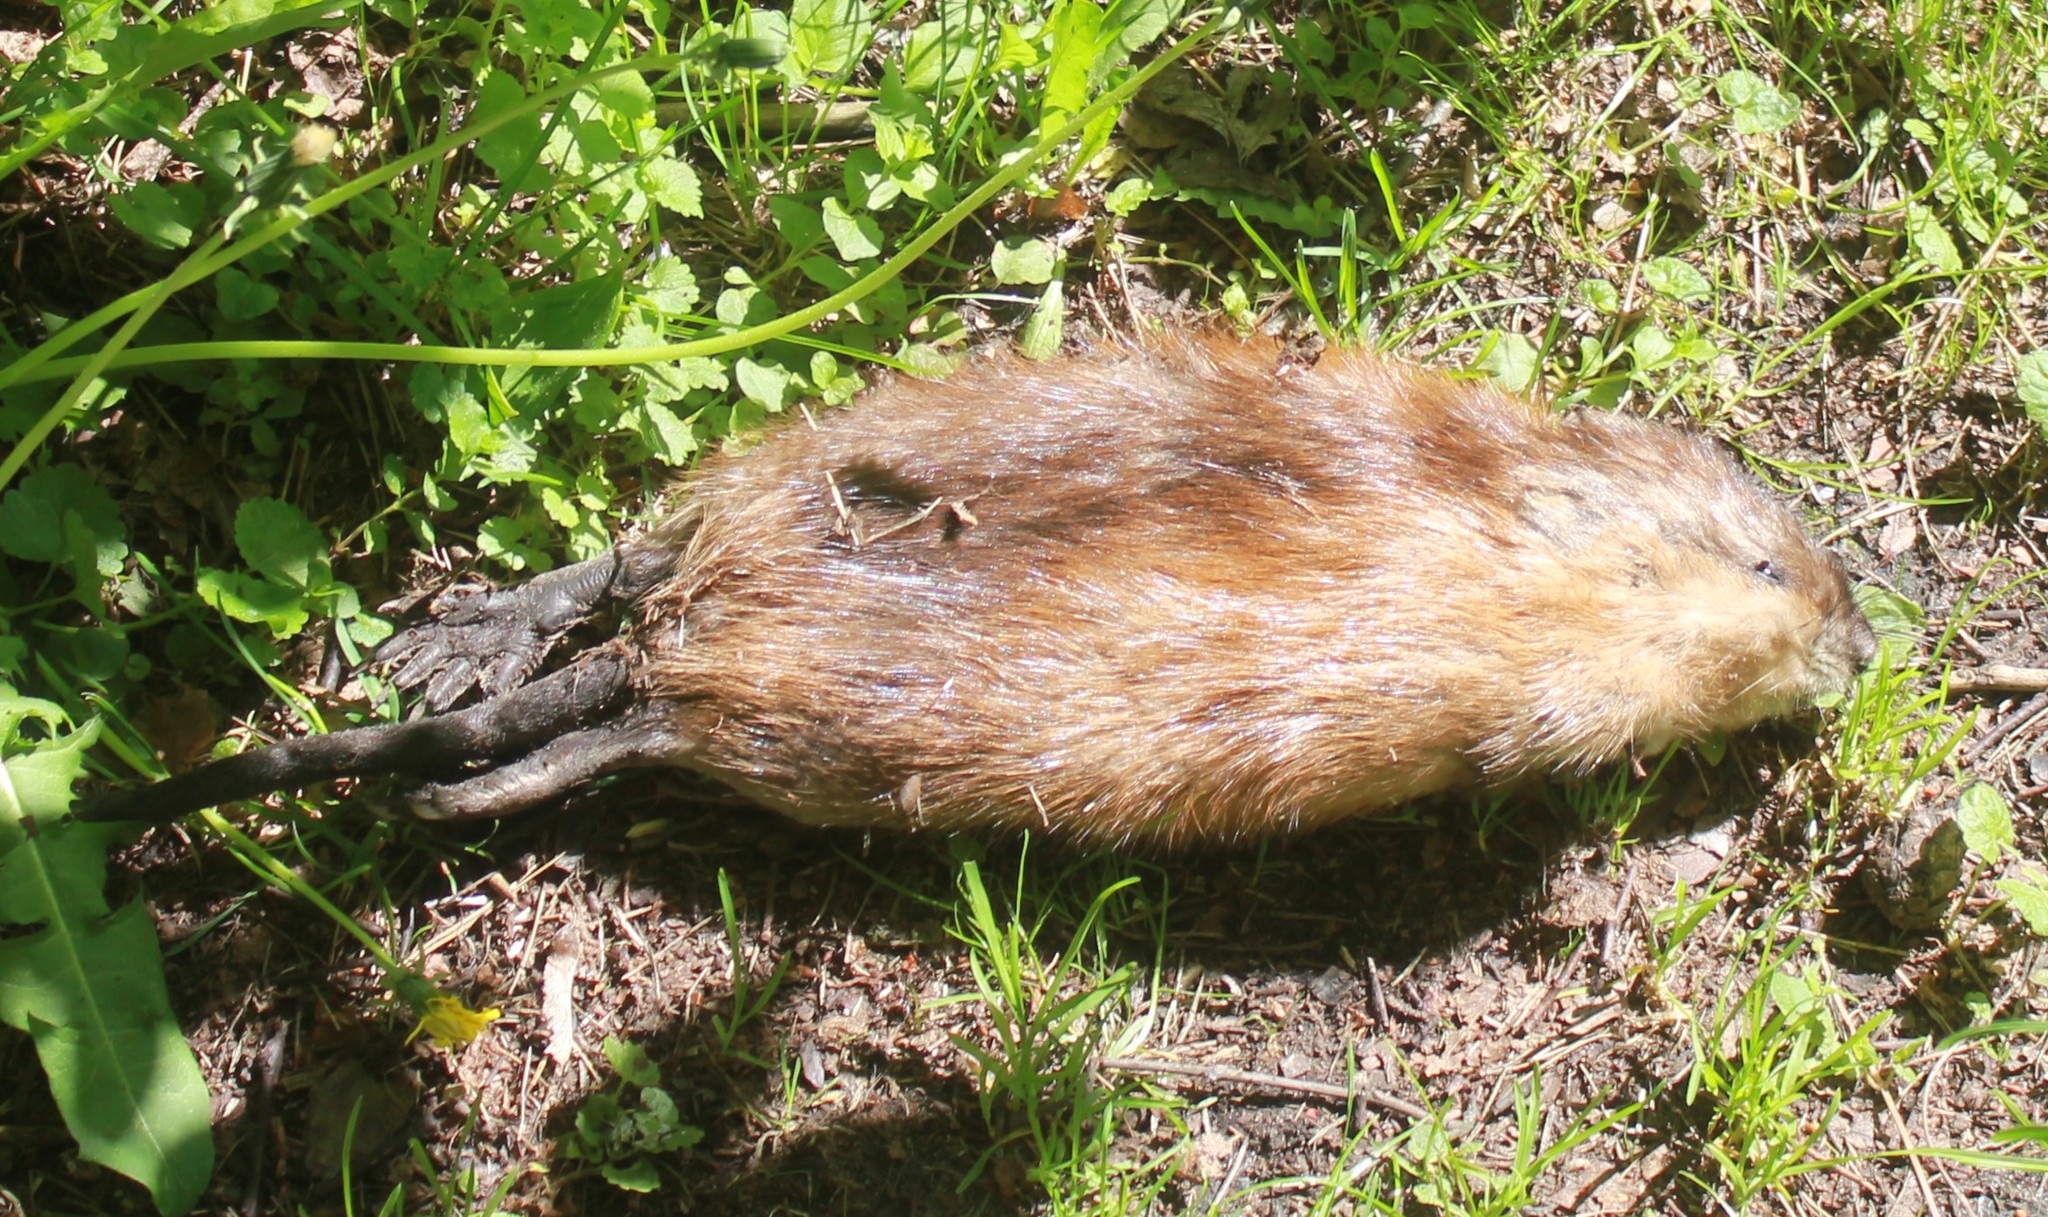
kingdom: Animalia
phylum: Chordata
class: Mammalia
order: Rodentia
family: Cricetidae
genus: Ondatra
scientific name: Ondatra zibethicus
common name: Muskrat
